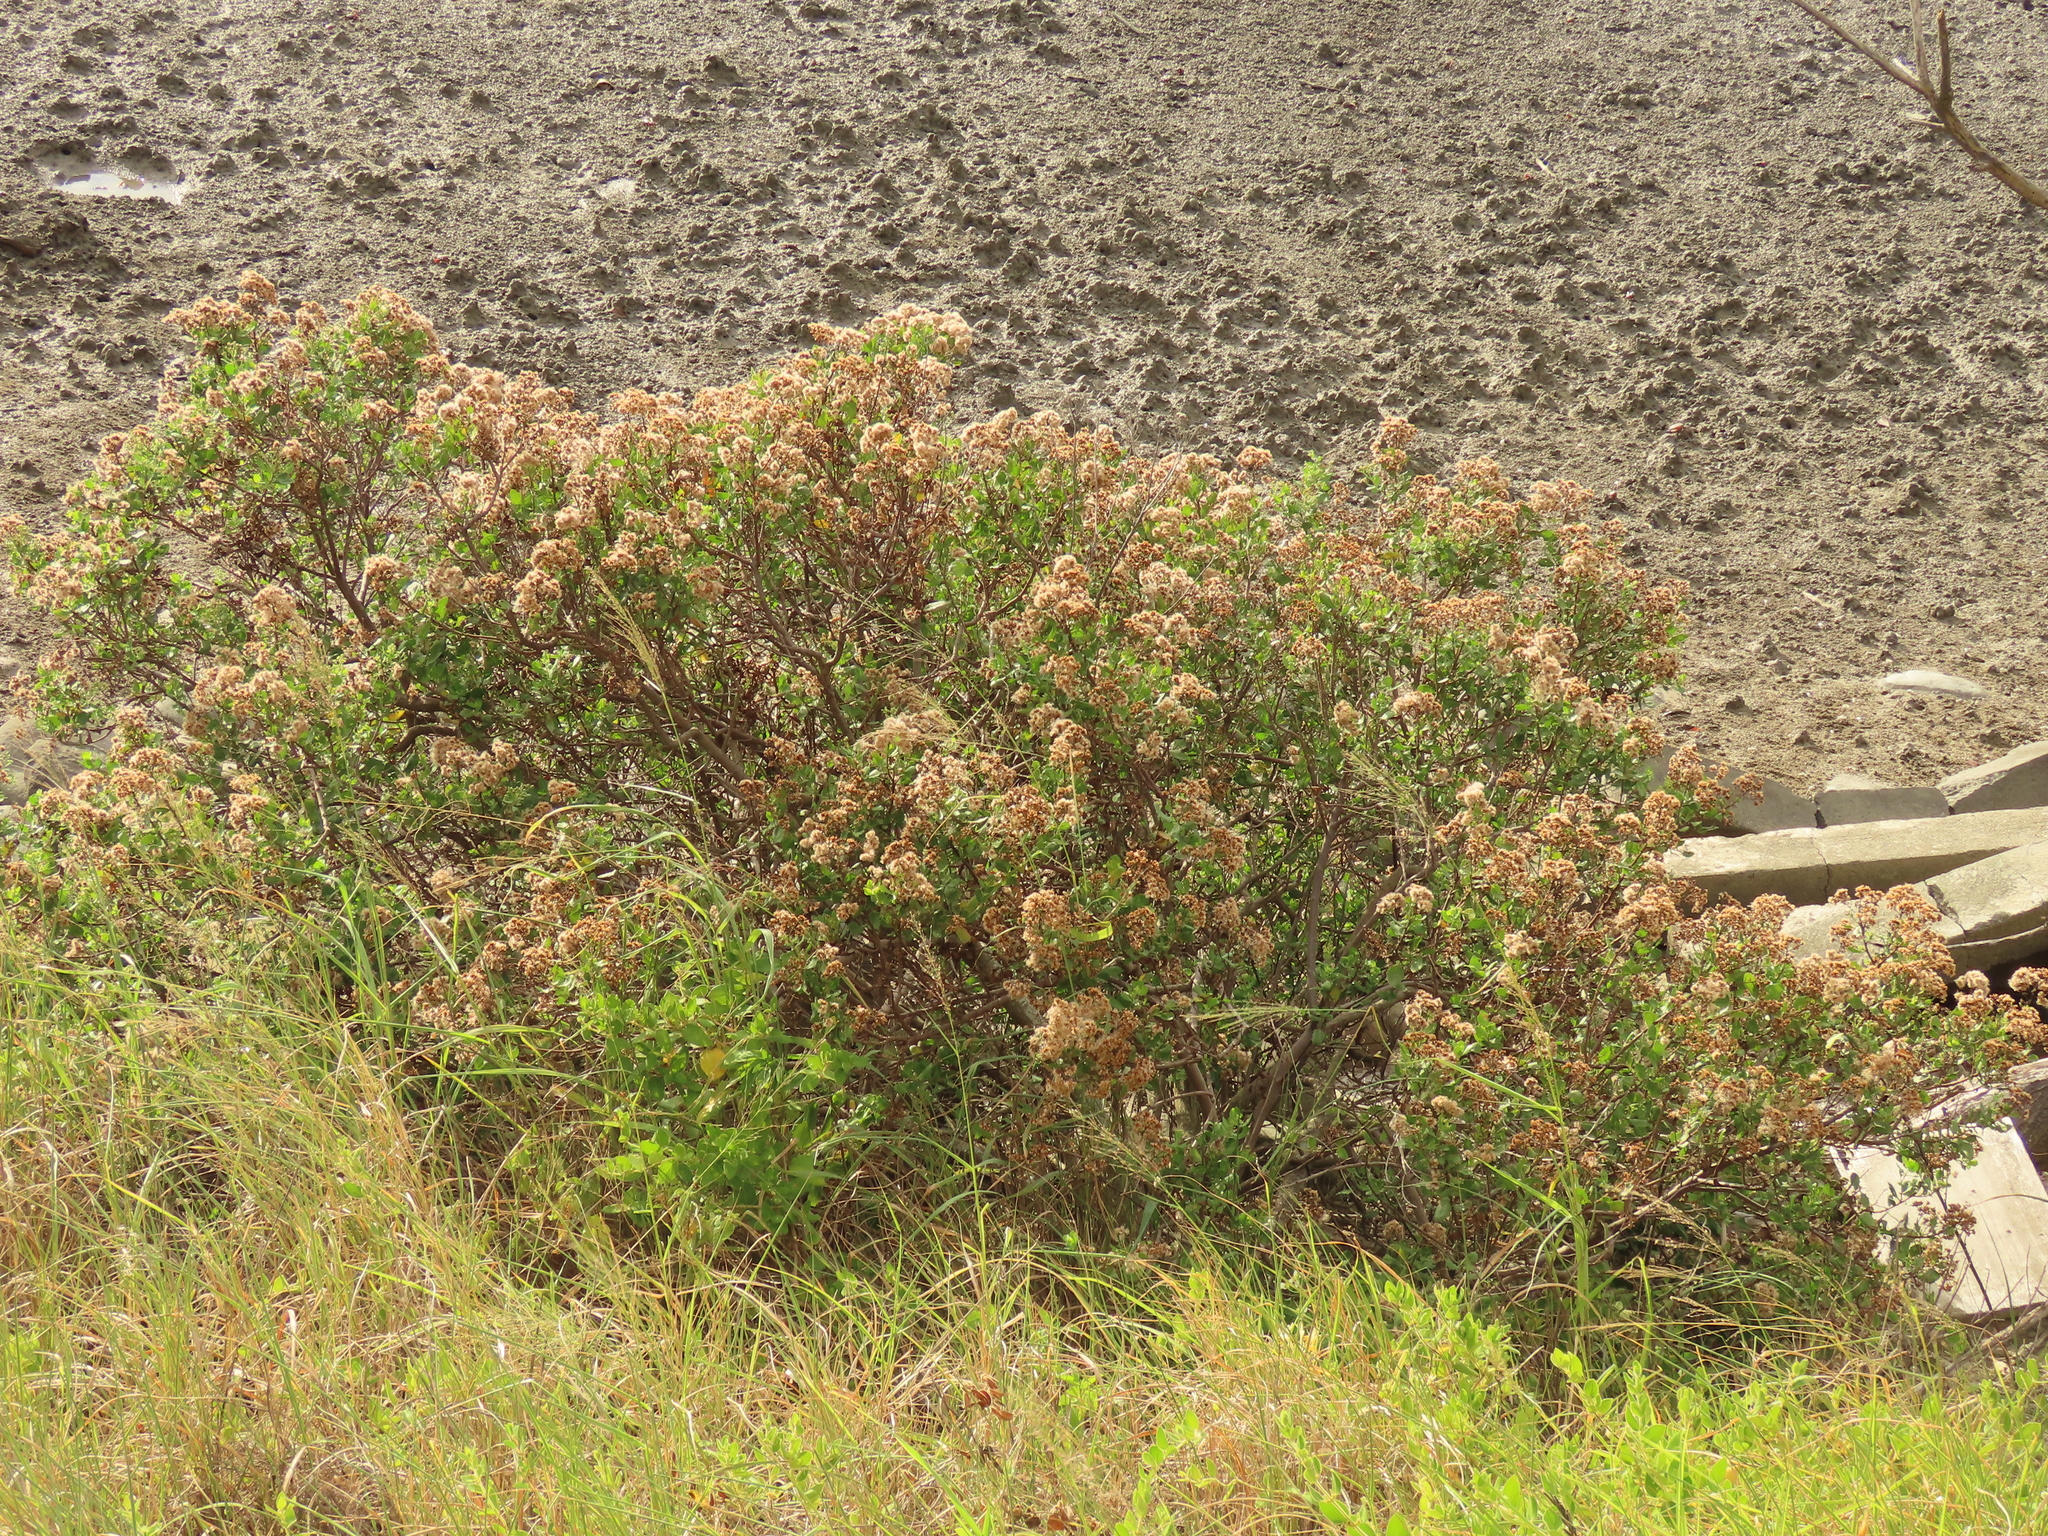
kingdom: Plantae
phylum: Tracheophyta
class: Magnoliopsida
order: Asterales
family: Asteraceae
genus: Pluchea
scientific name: Pluchea indica
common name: Indian fleabane
